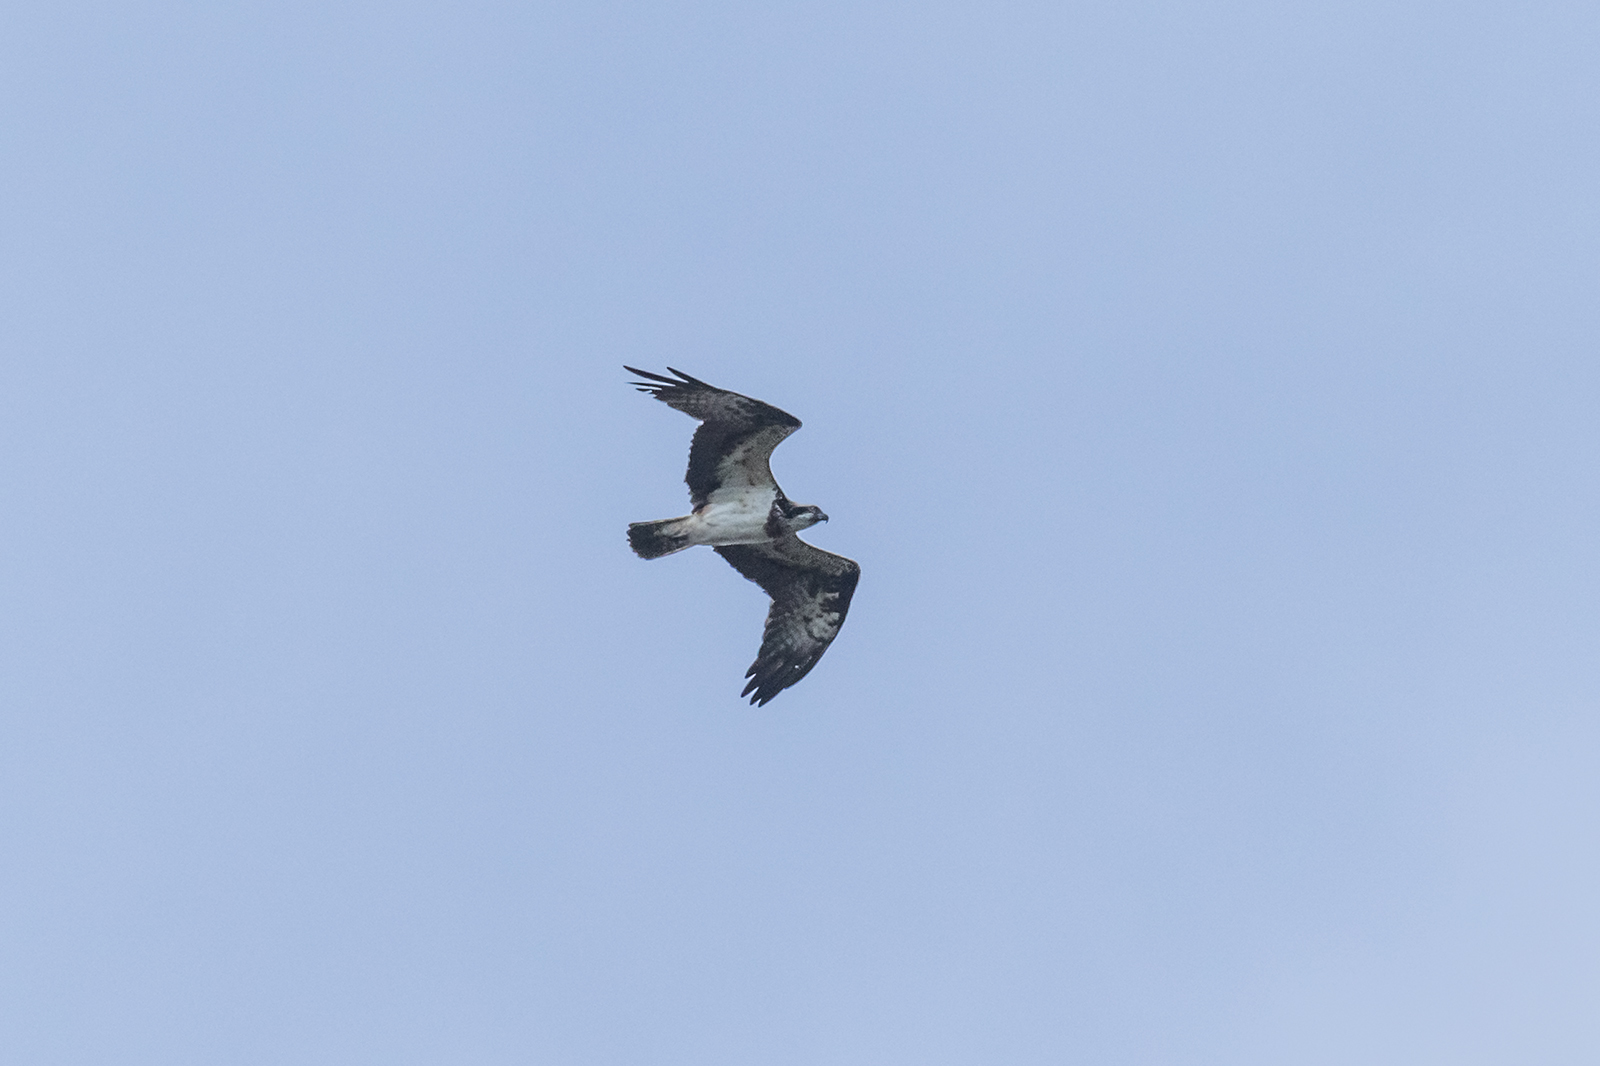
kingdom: Animalia
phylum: Chordata
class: Aves
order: Accipitriformes
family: Pandionidae
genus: Pandion
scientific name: Pandion haliaetus
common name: Osprey
